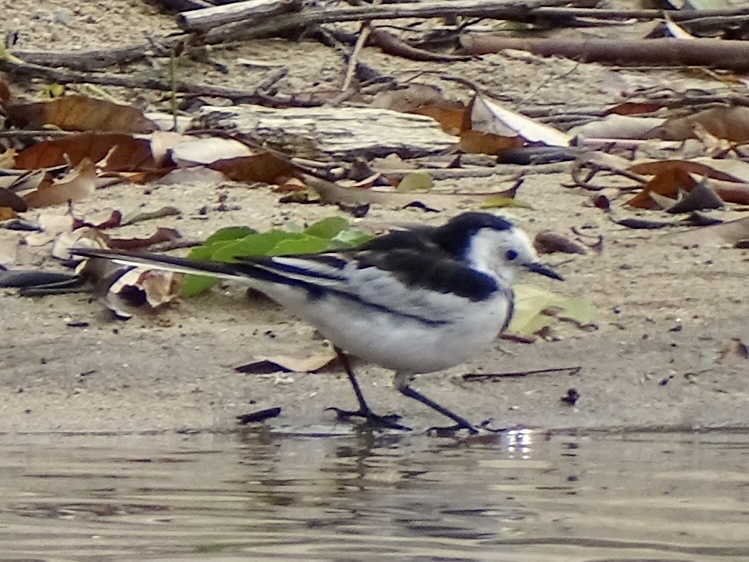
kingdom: Animalia
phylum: Chordata
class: Aves
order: Passeriformes
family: Motacillidae
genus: Motacilla
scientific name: Motacilla alba
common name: White wagtail
